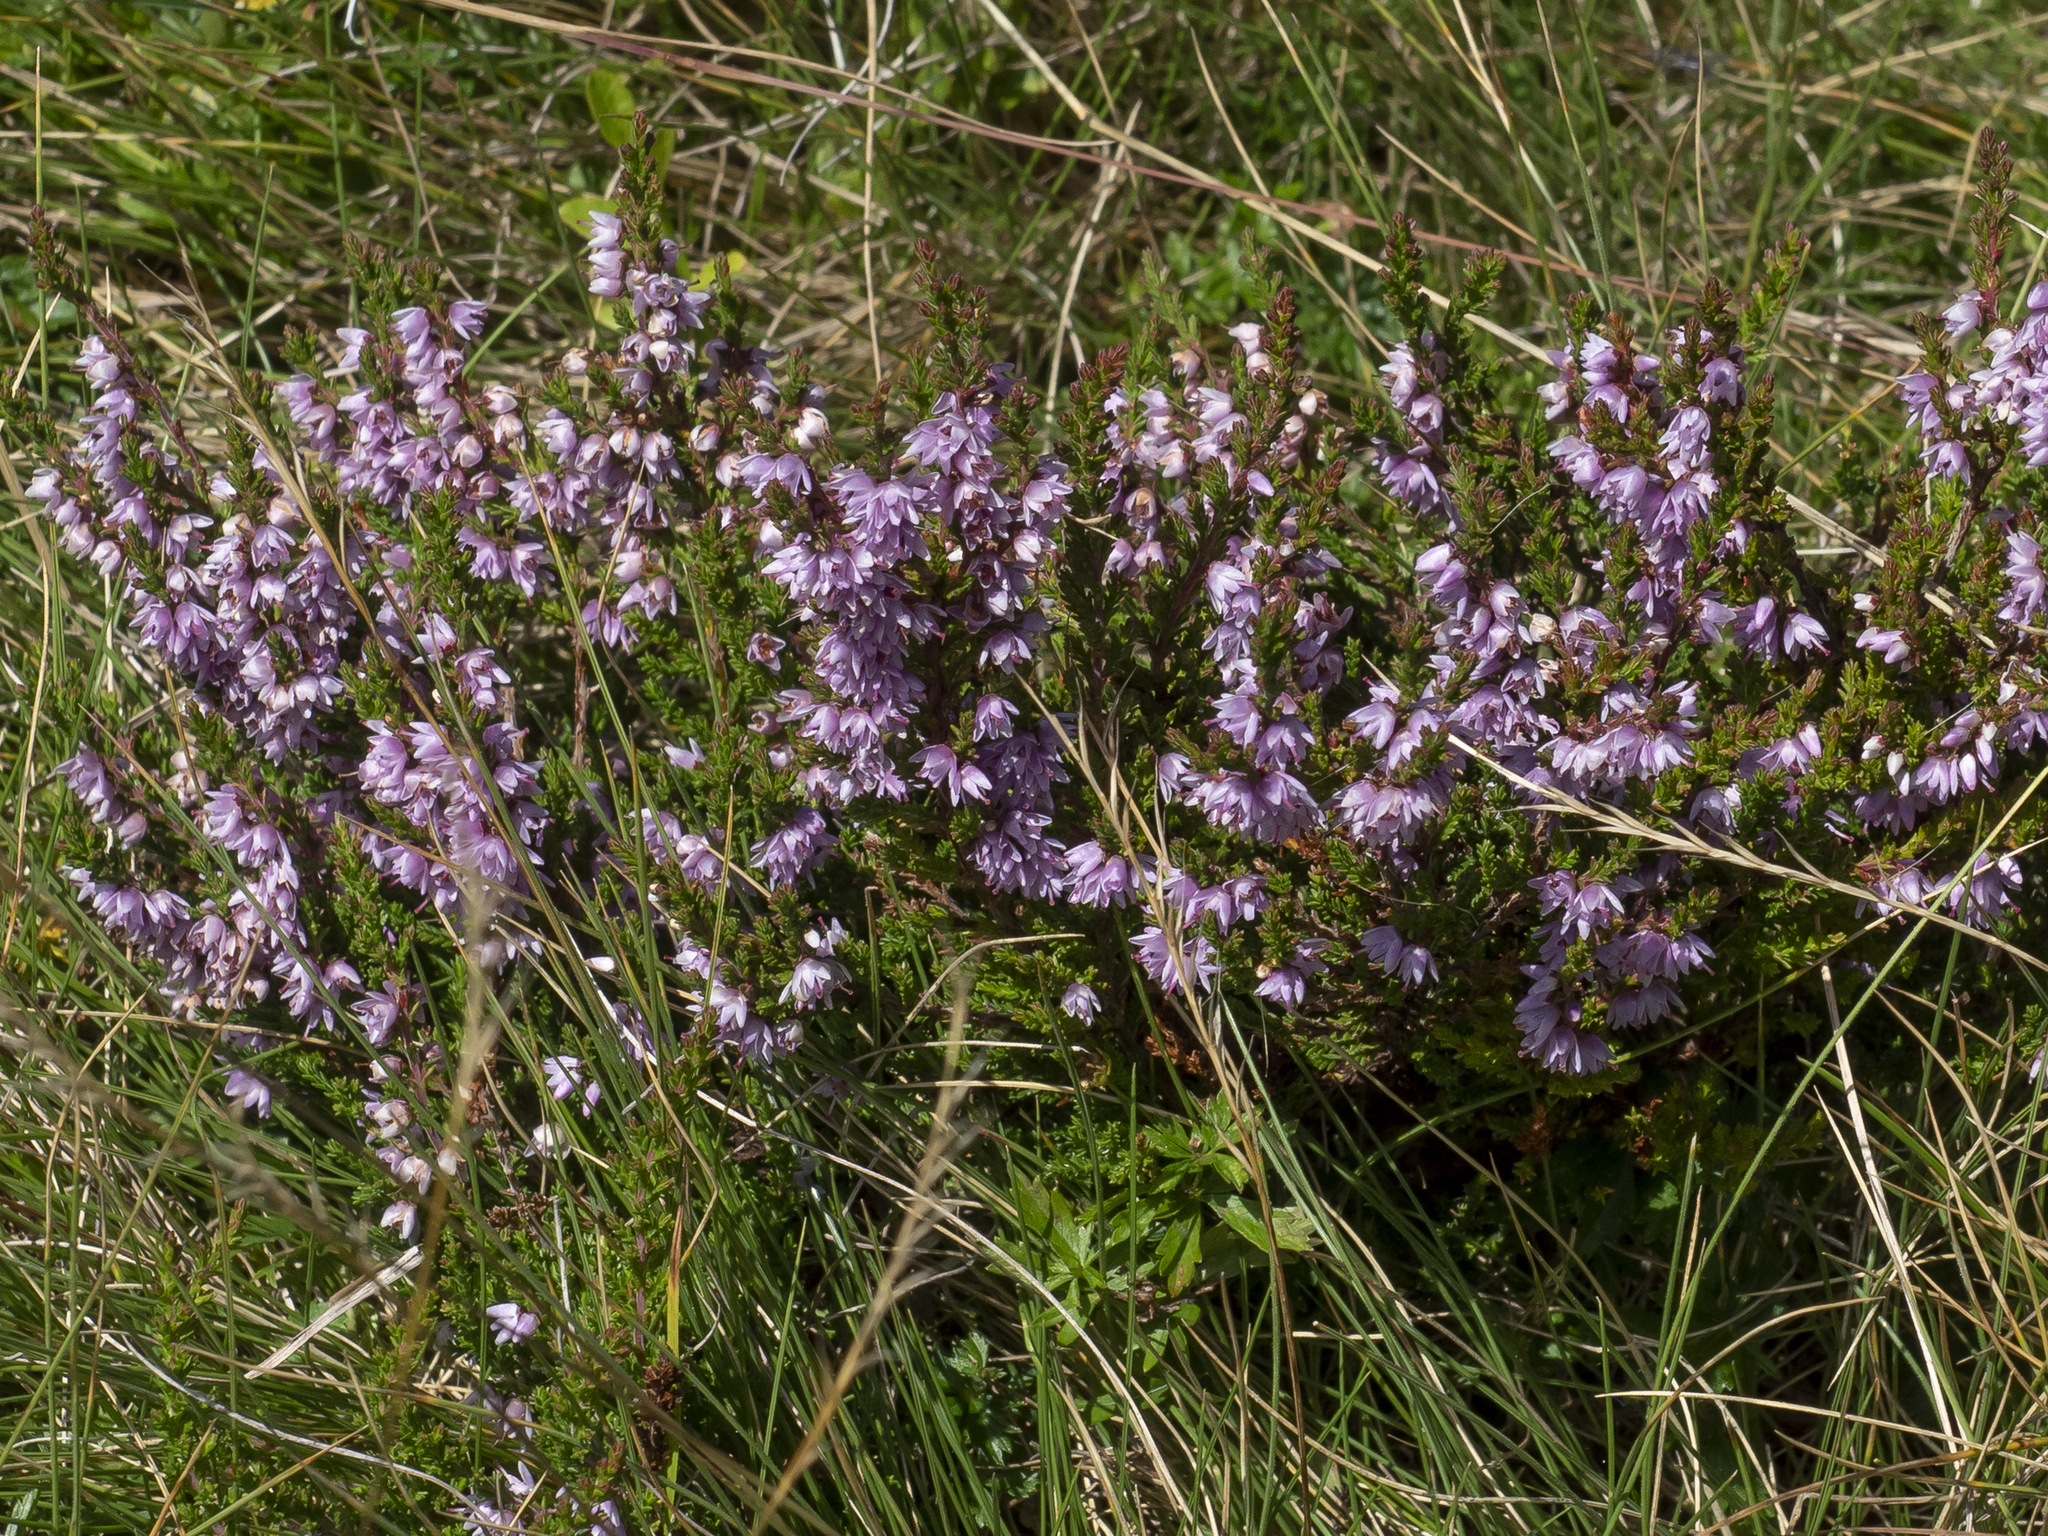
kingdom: Plantae
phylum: Tracheophyta
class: Magnoliopsida
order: Ericales
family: Ericaceae
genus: Calluna
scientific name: Calluna vulgaris
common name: Heather
